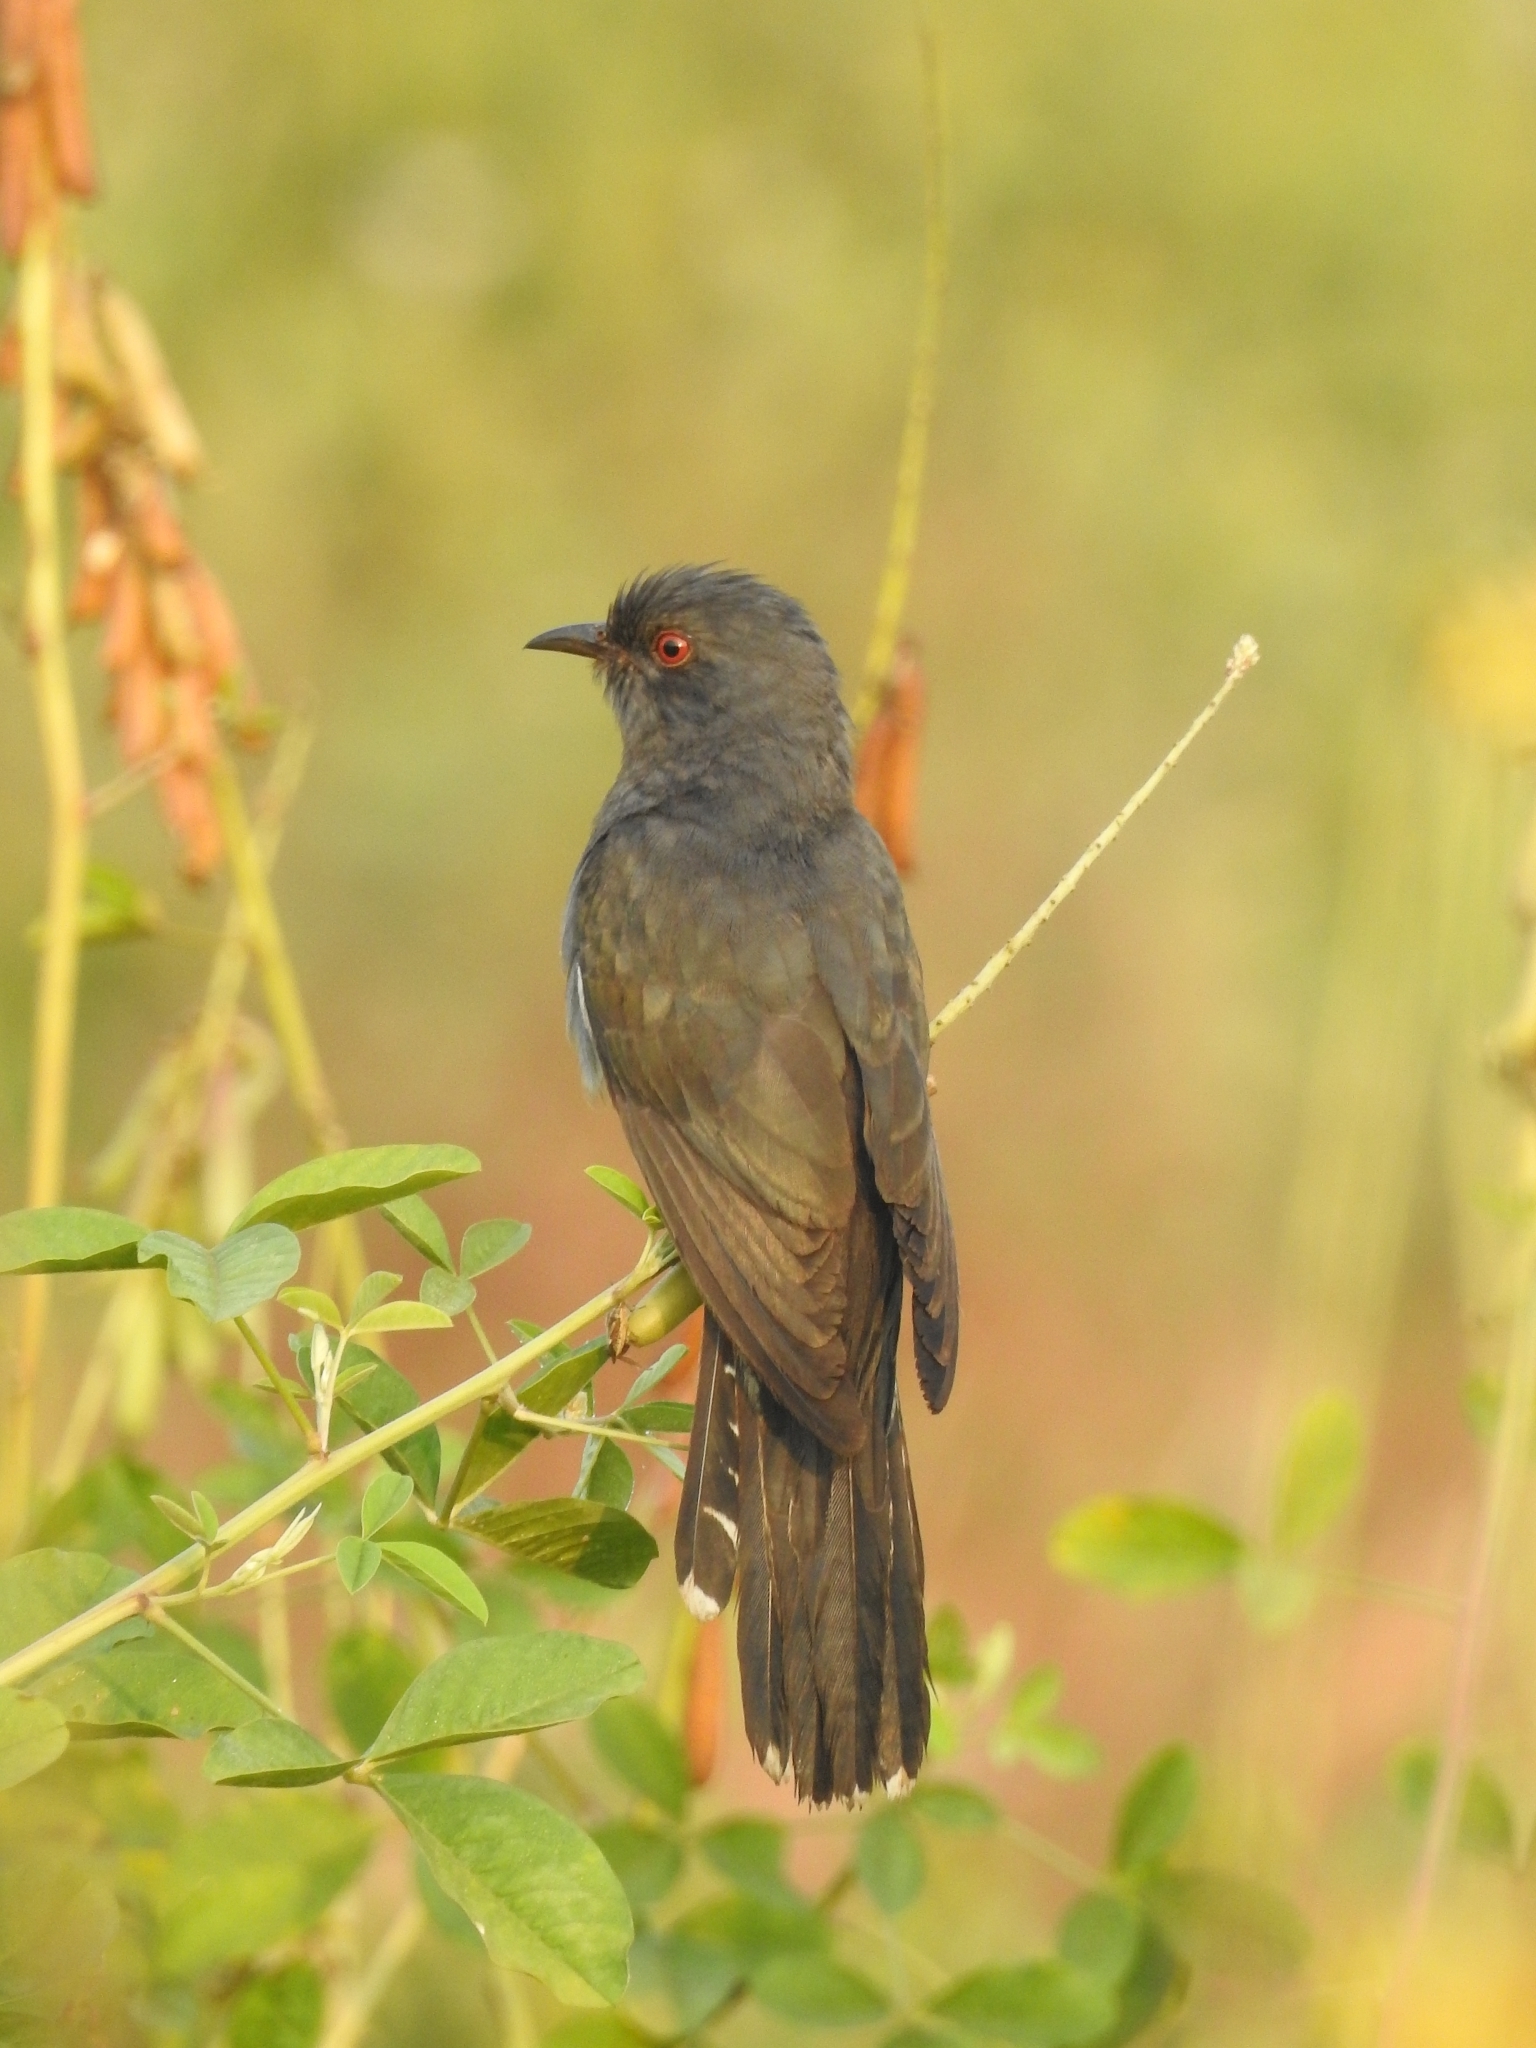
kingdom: Animalia
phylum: Chordata
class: Aves
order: Cuculiformes
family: Cuculidae
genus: Cacomantis
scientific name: Cacomantis passerinus
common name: Grey-bellied cuckoo
